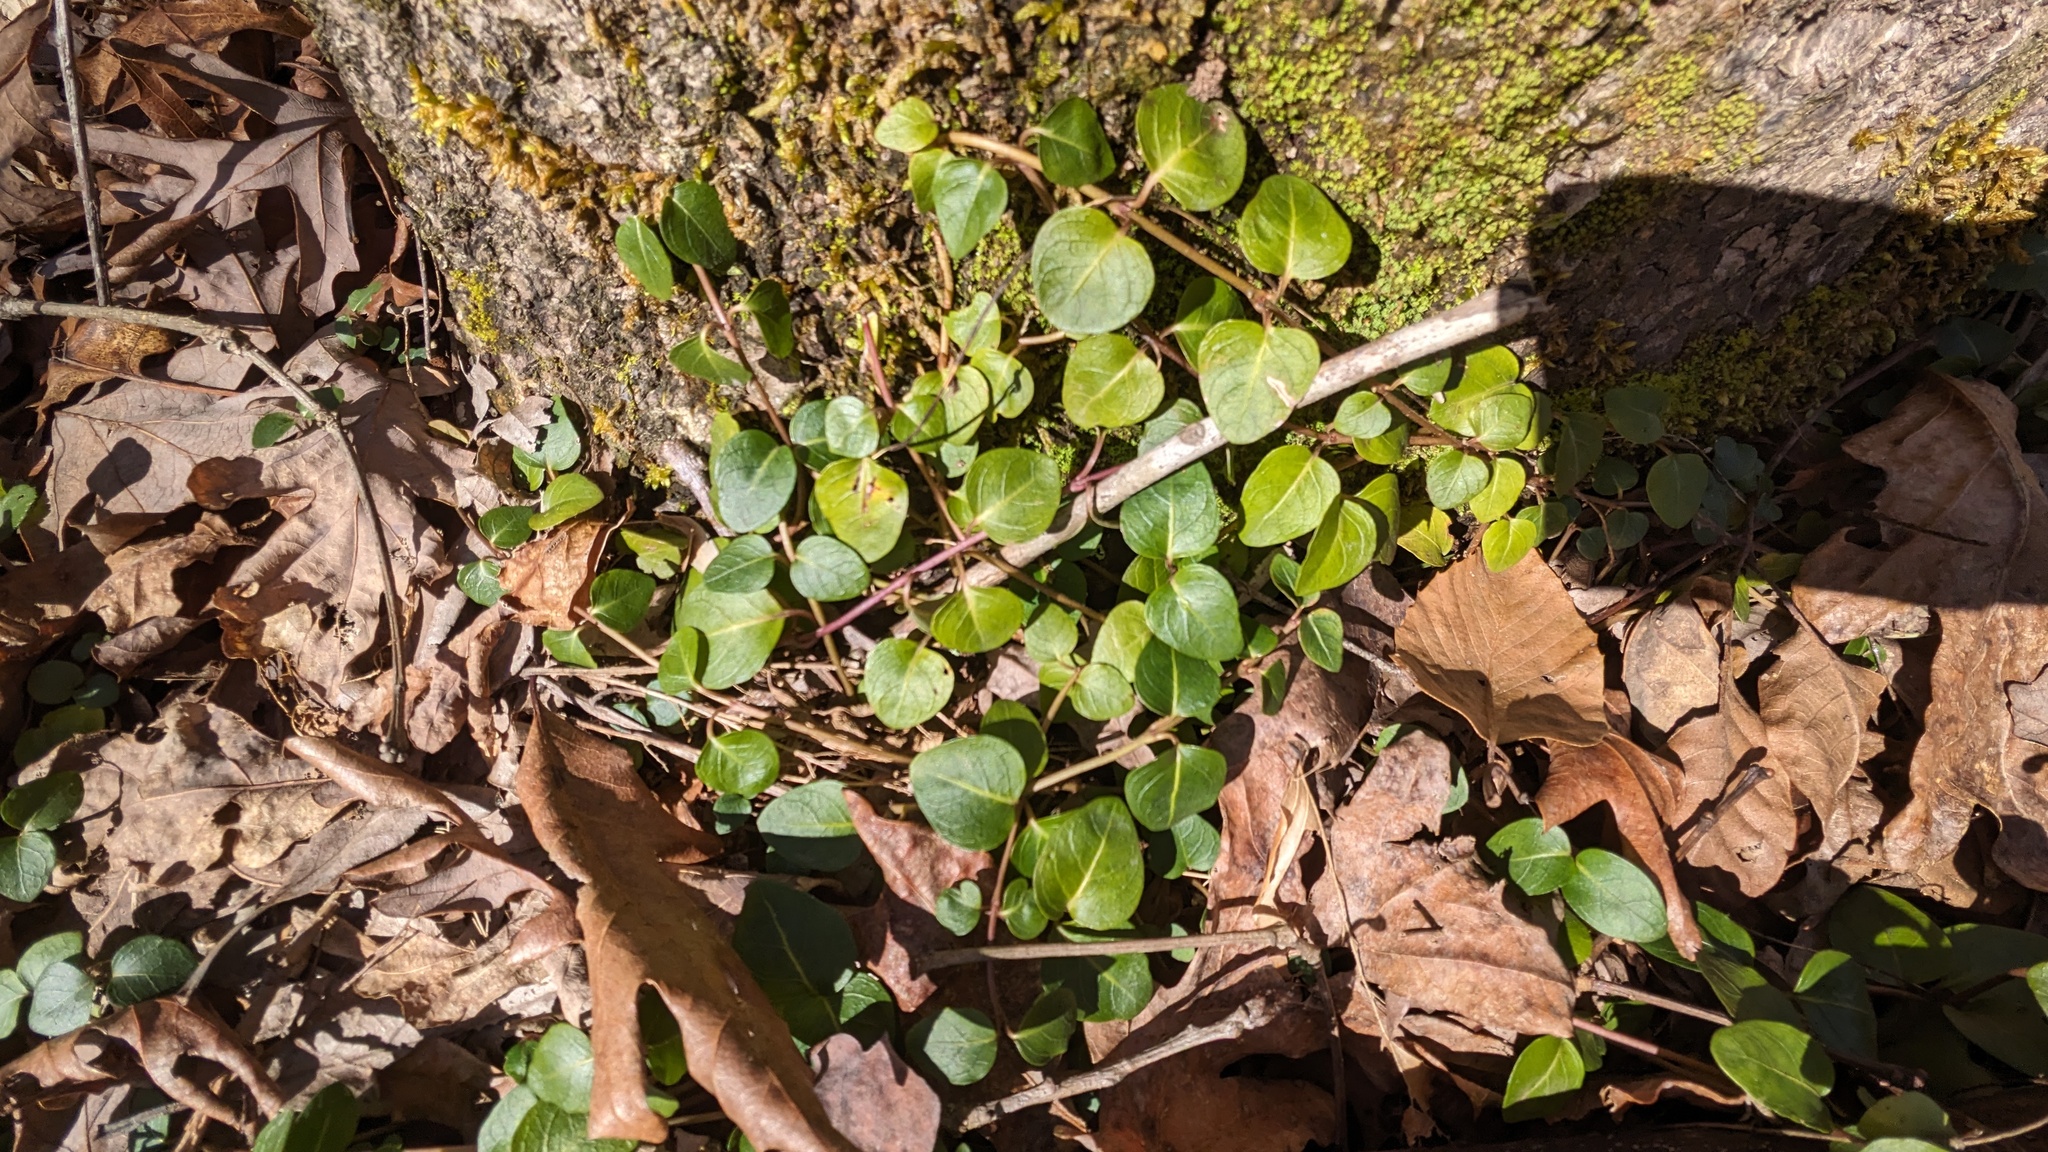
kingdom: Plantae
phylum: Tracheophyta
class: Magnoliopsida
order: Gentianales
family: Rubiaceae
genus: Mitchella
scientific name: Mitchella repens
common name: Partridge-berry
